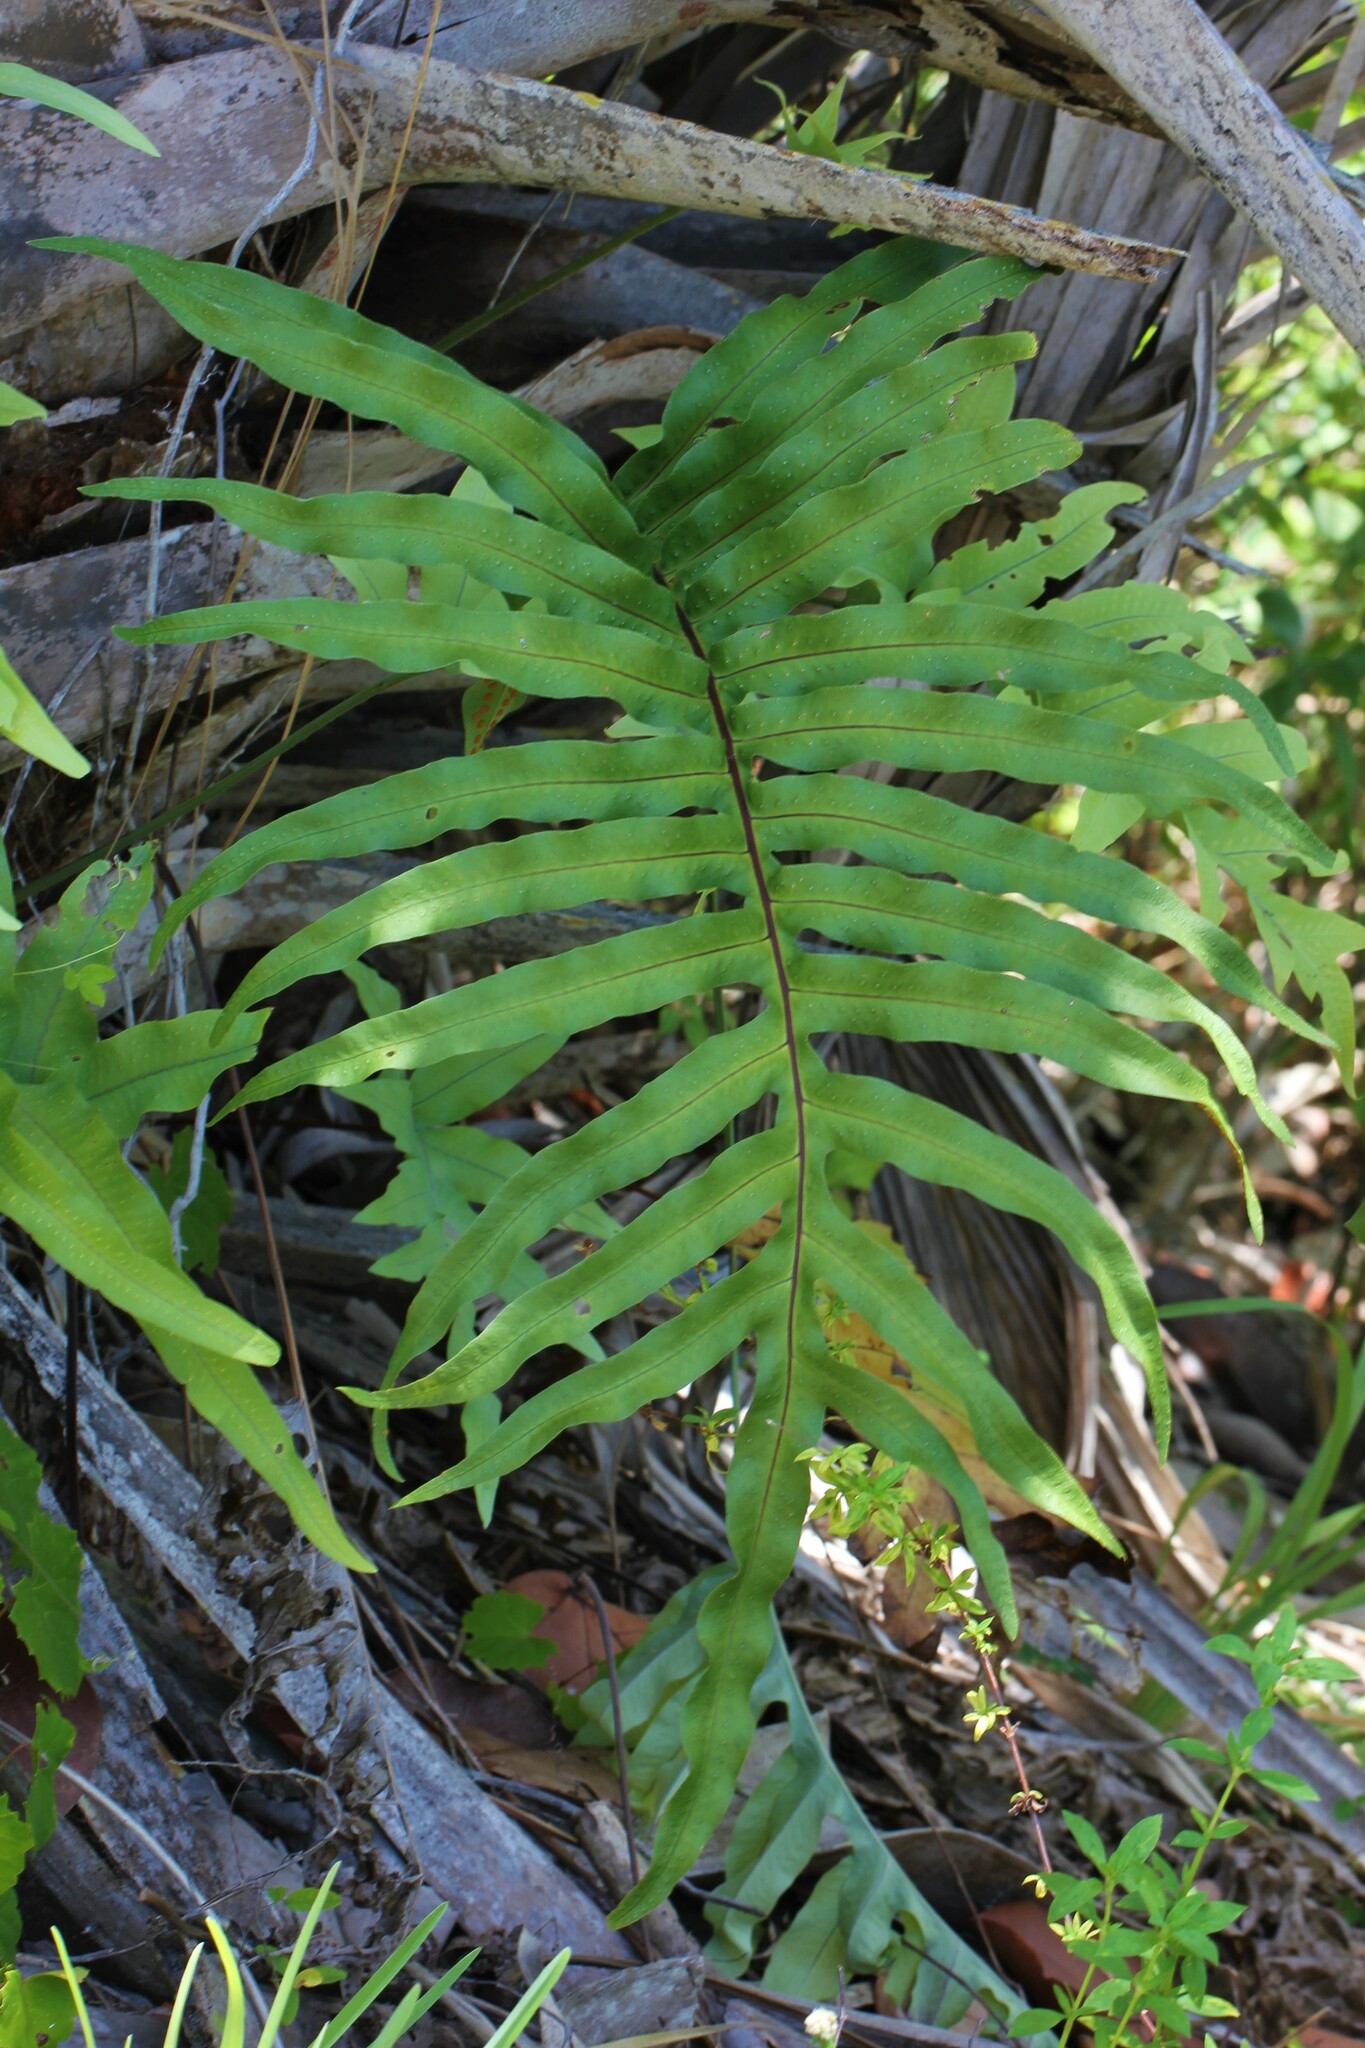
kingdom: Plantae
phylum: Tracheophyta
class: Polypodiopsida
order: Polypodiales
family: Polypodiaceae
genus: Phlebodium
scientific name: Phlebodium aureum
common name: Gold-foot fern
